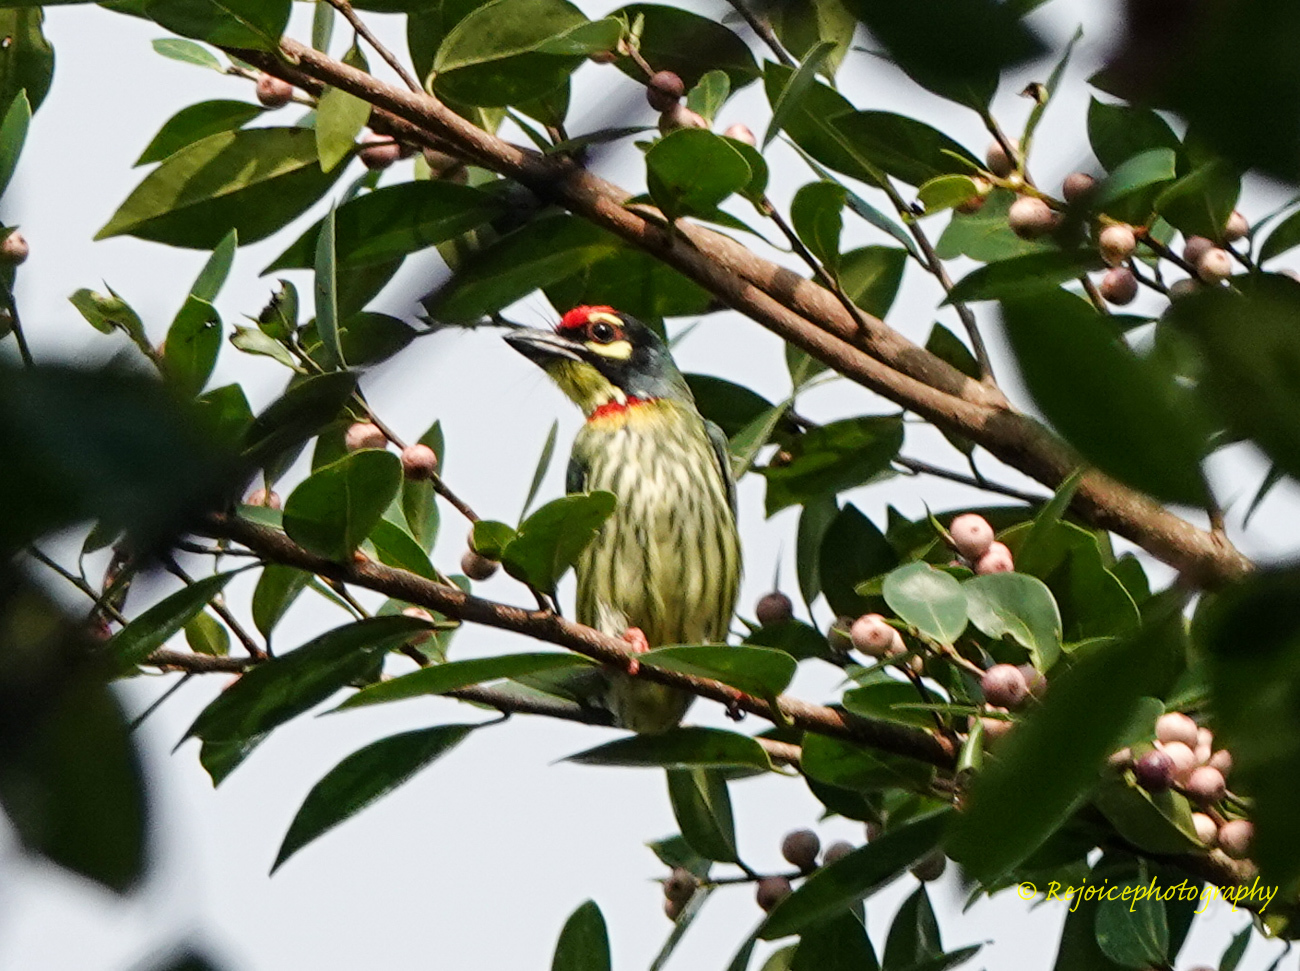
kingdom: Animalia
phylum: Chordata
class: Aves
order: Piciformes
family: Megalaimidae
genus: Psilopogon
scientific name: Psilopogon haemacephalus
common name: Coppersmith barbet
